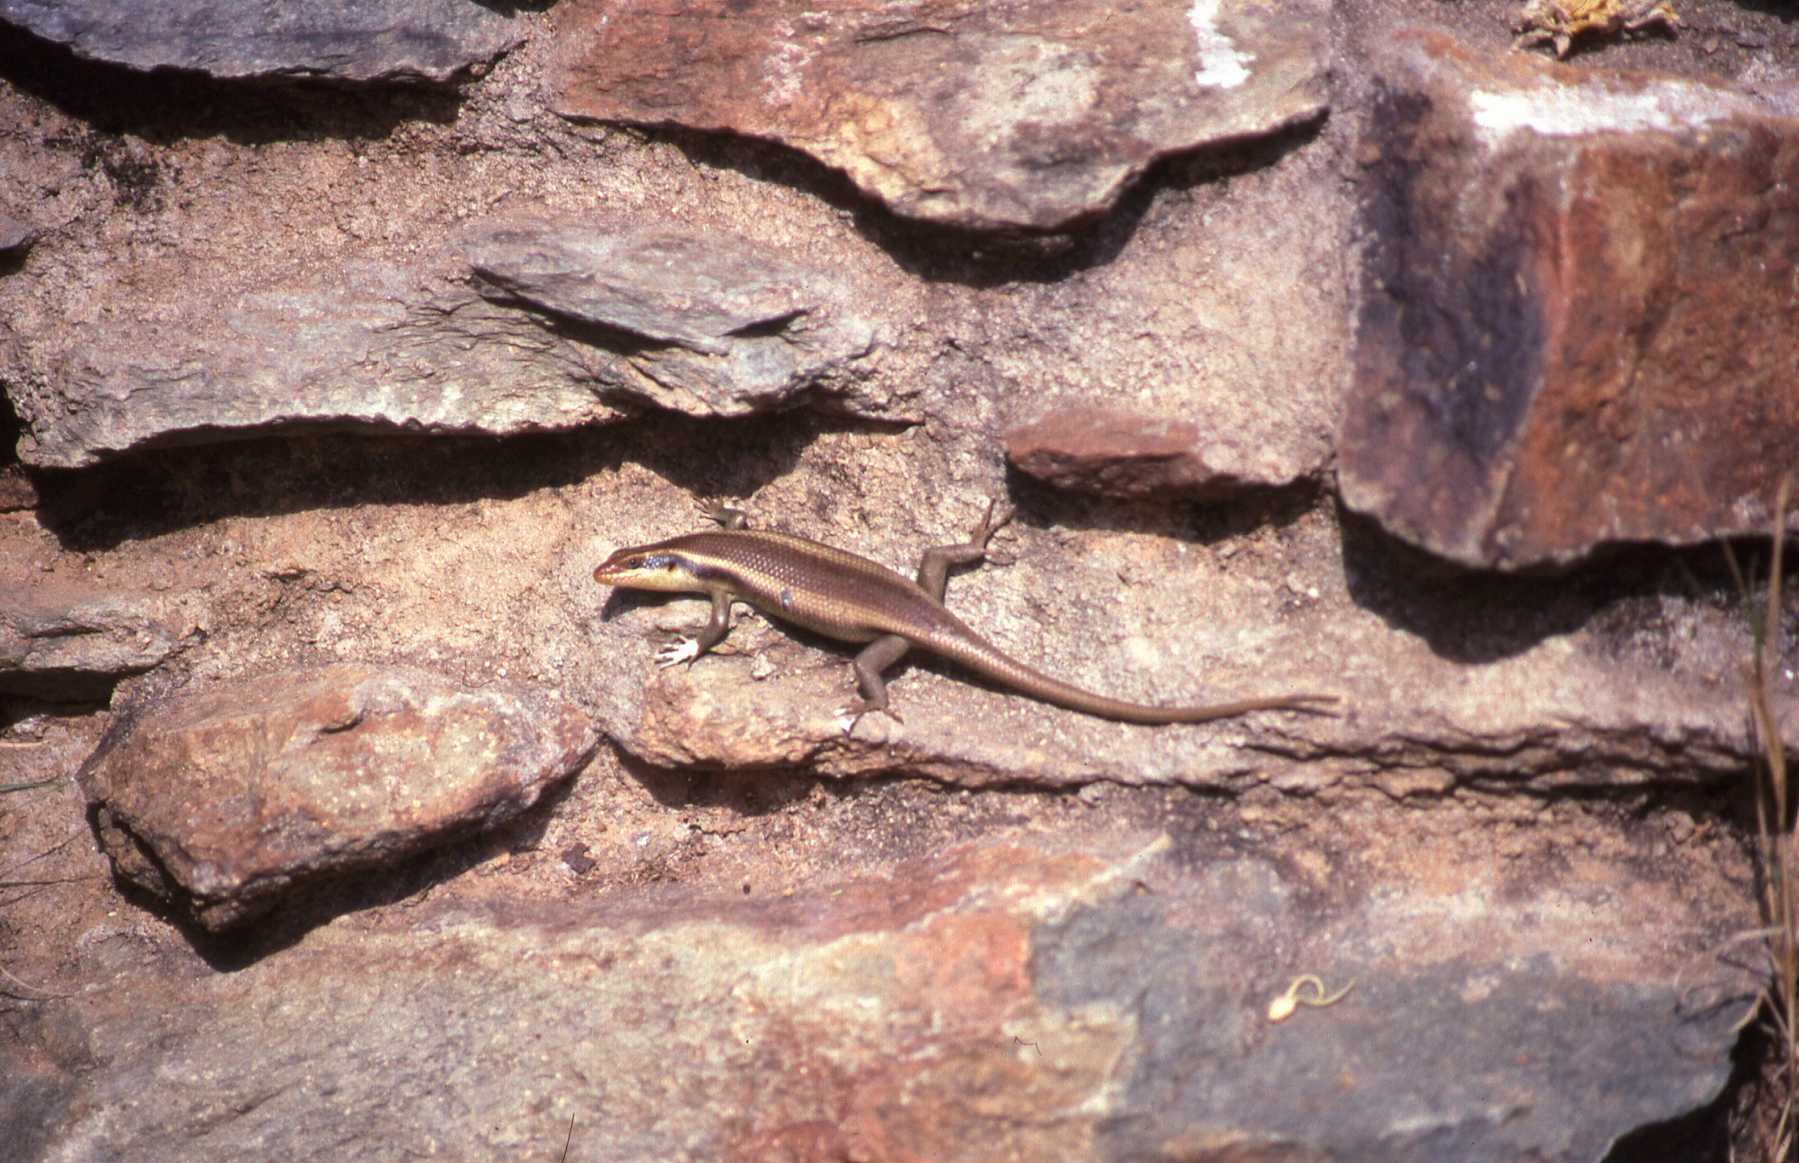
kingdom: Animalia
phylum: Chordata
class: Squamata
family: Scincidae
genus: Trachylepis
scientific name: Trachylepis wahlbergii
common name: Wahlberg’s striped skink
